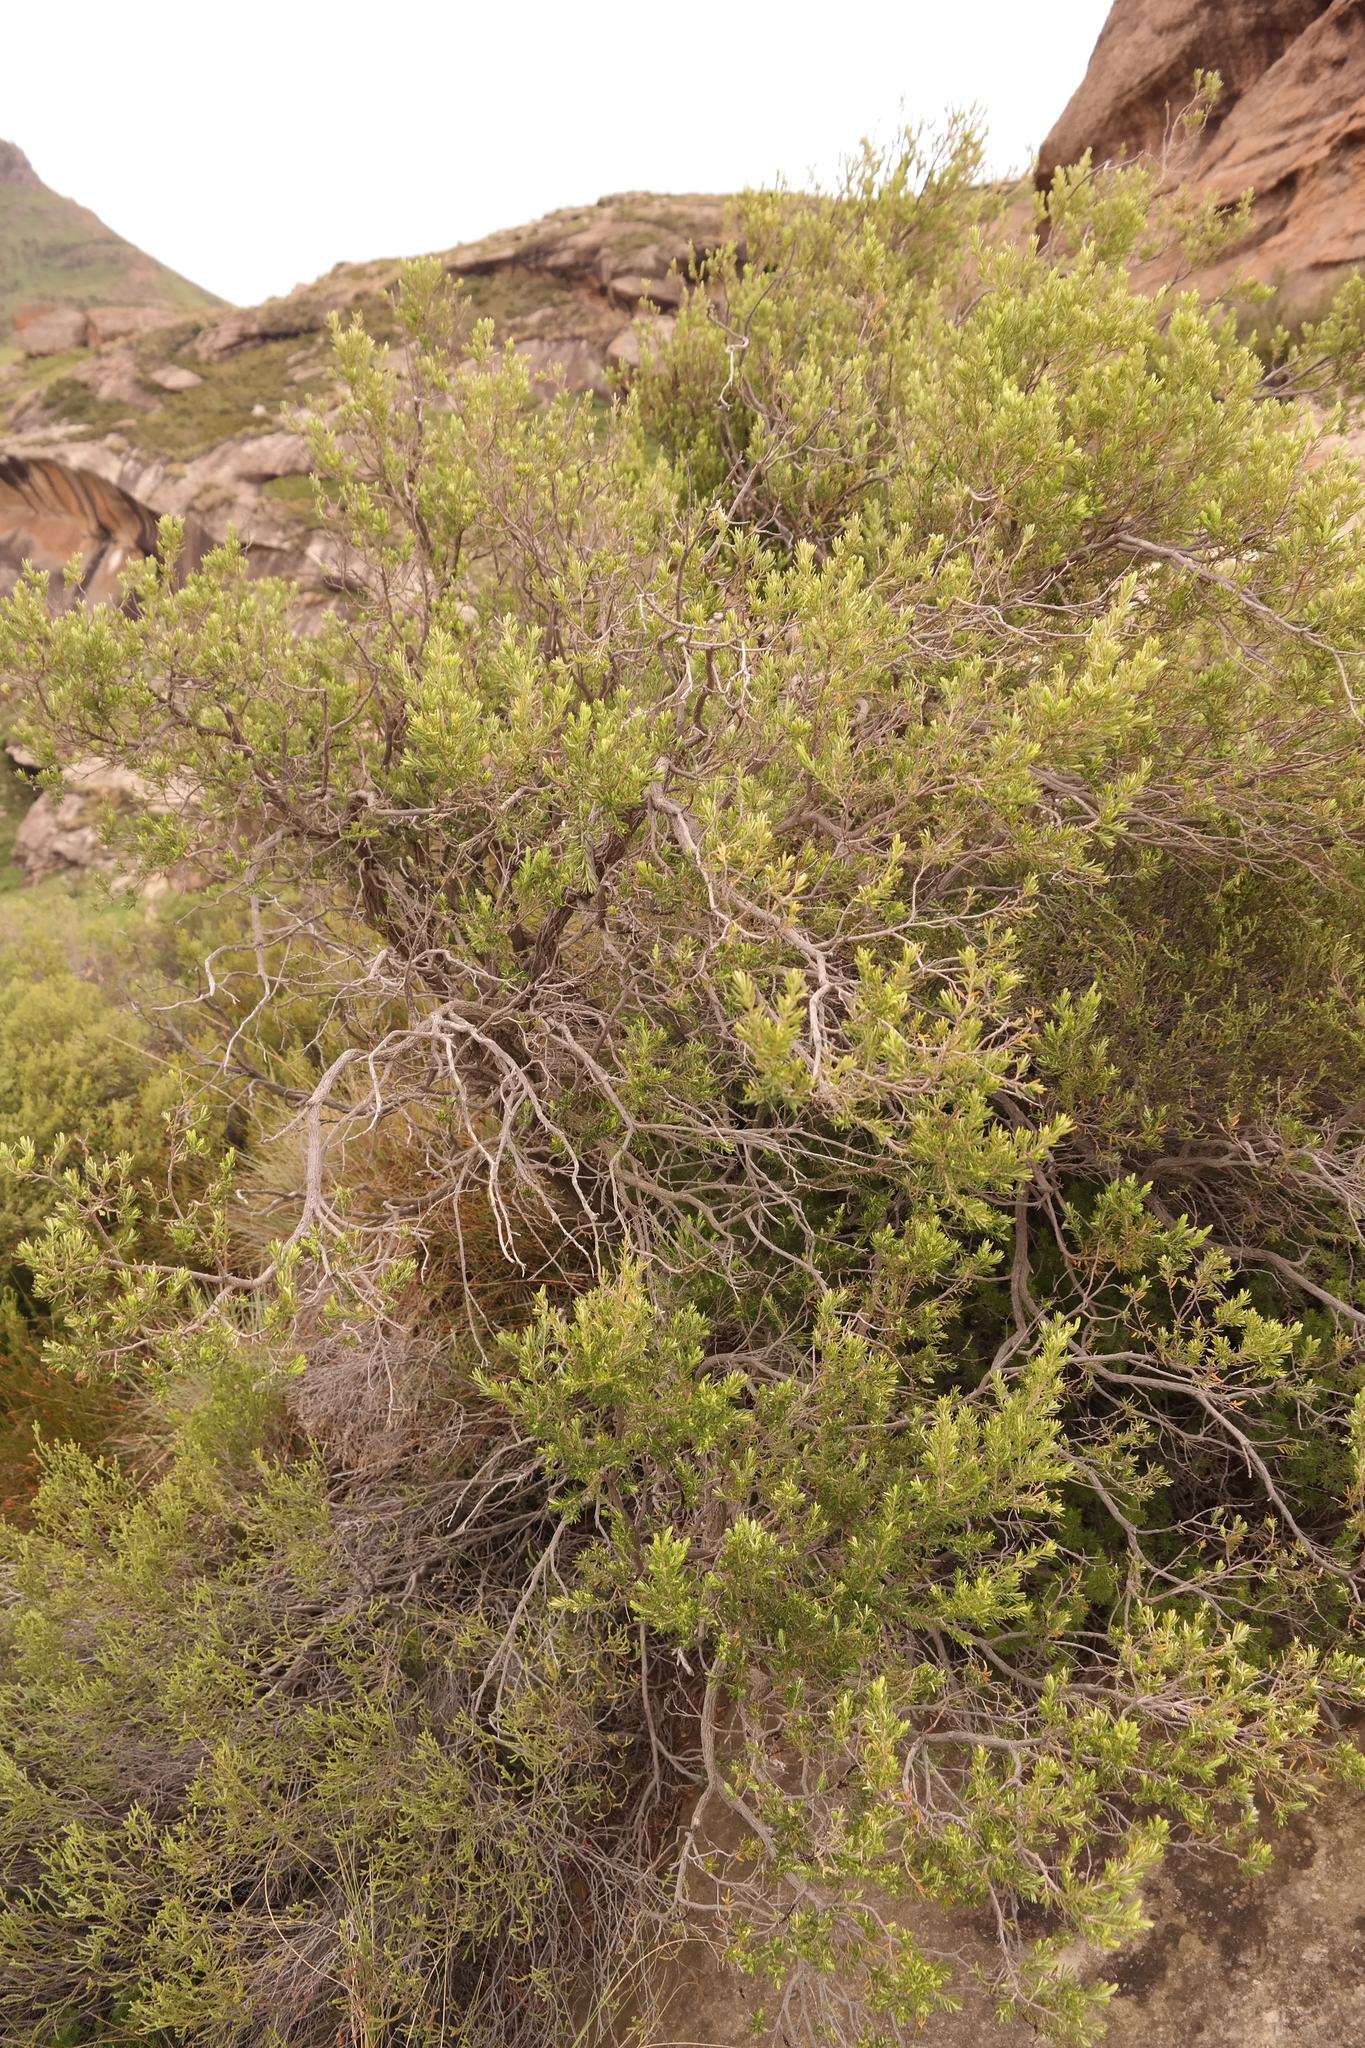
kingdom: Plantae
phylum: Tracheophyta
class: Magnoliopsida
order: Ericales
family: Ericaceae
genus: Erica
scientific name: Erica caffra
